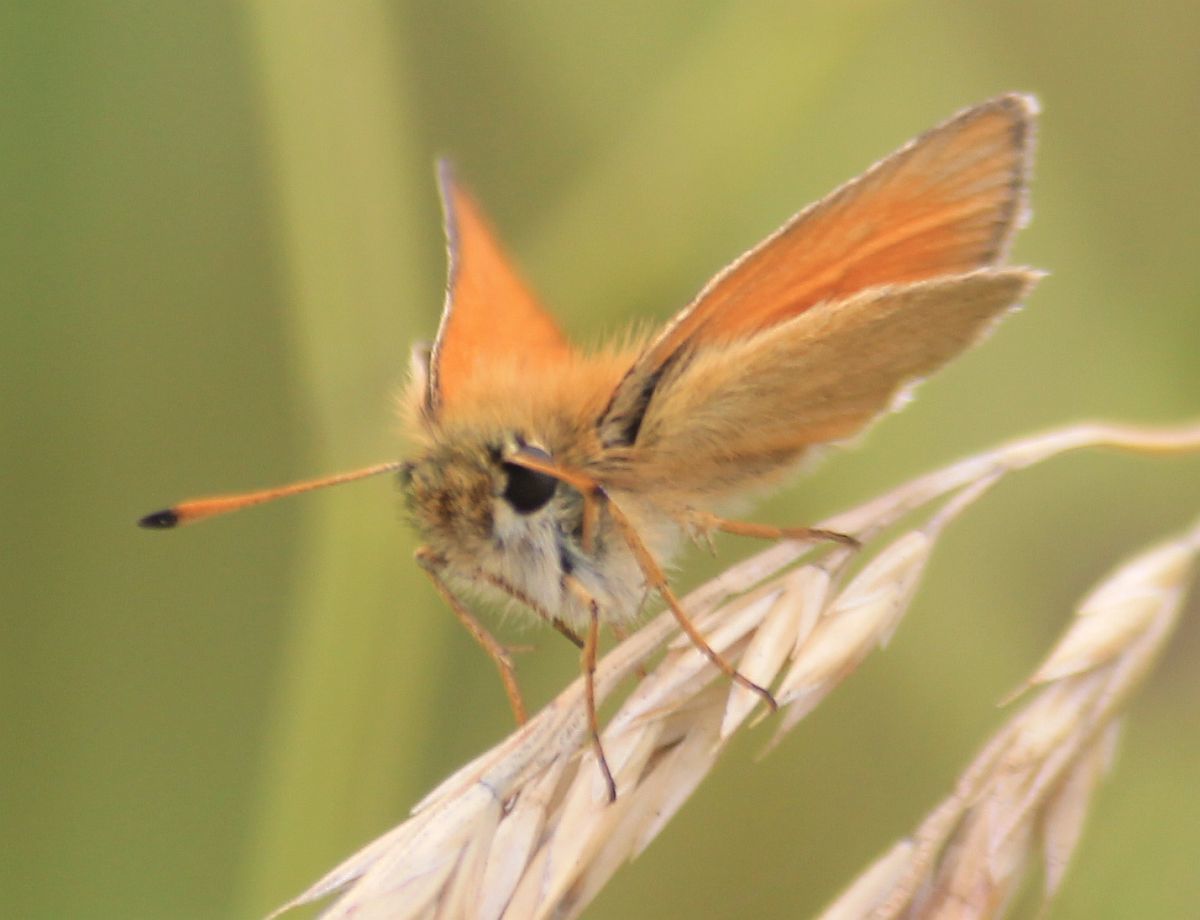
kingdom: Animalia
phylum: Arthropoda
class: Insecta
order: Lepidoptera
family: Hesperiidae
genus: Thymelicus
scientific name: Thymelicus lineola
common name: Essex skipper
